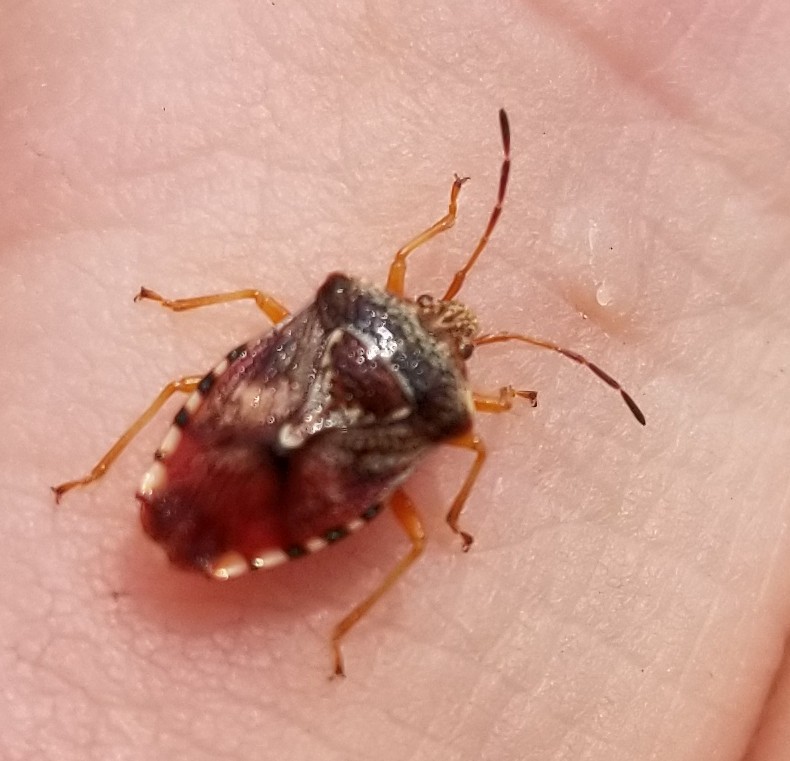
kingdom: Animalia
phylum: Arthropoda
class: Insecta
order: Hemiptera
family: Acanthosomatidae
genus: Elasmucha
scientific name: Elasmucha lateralis
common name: Shield bug
